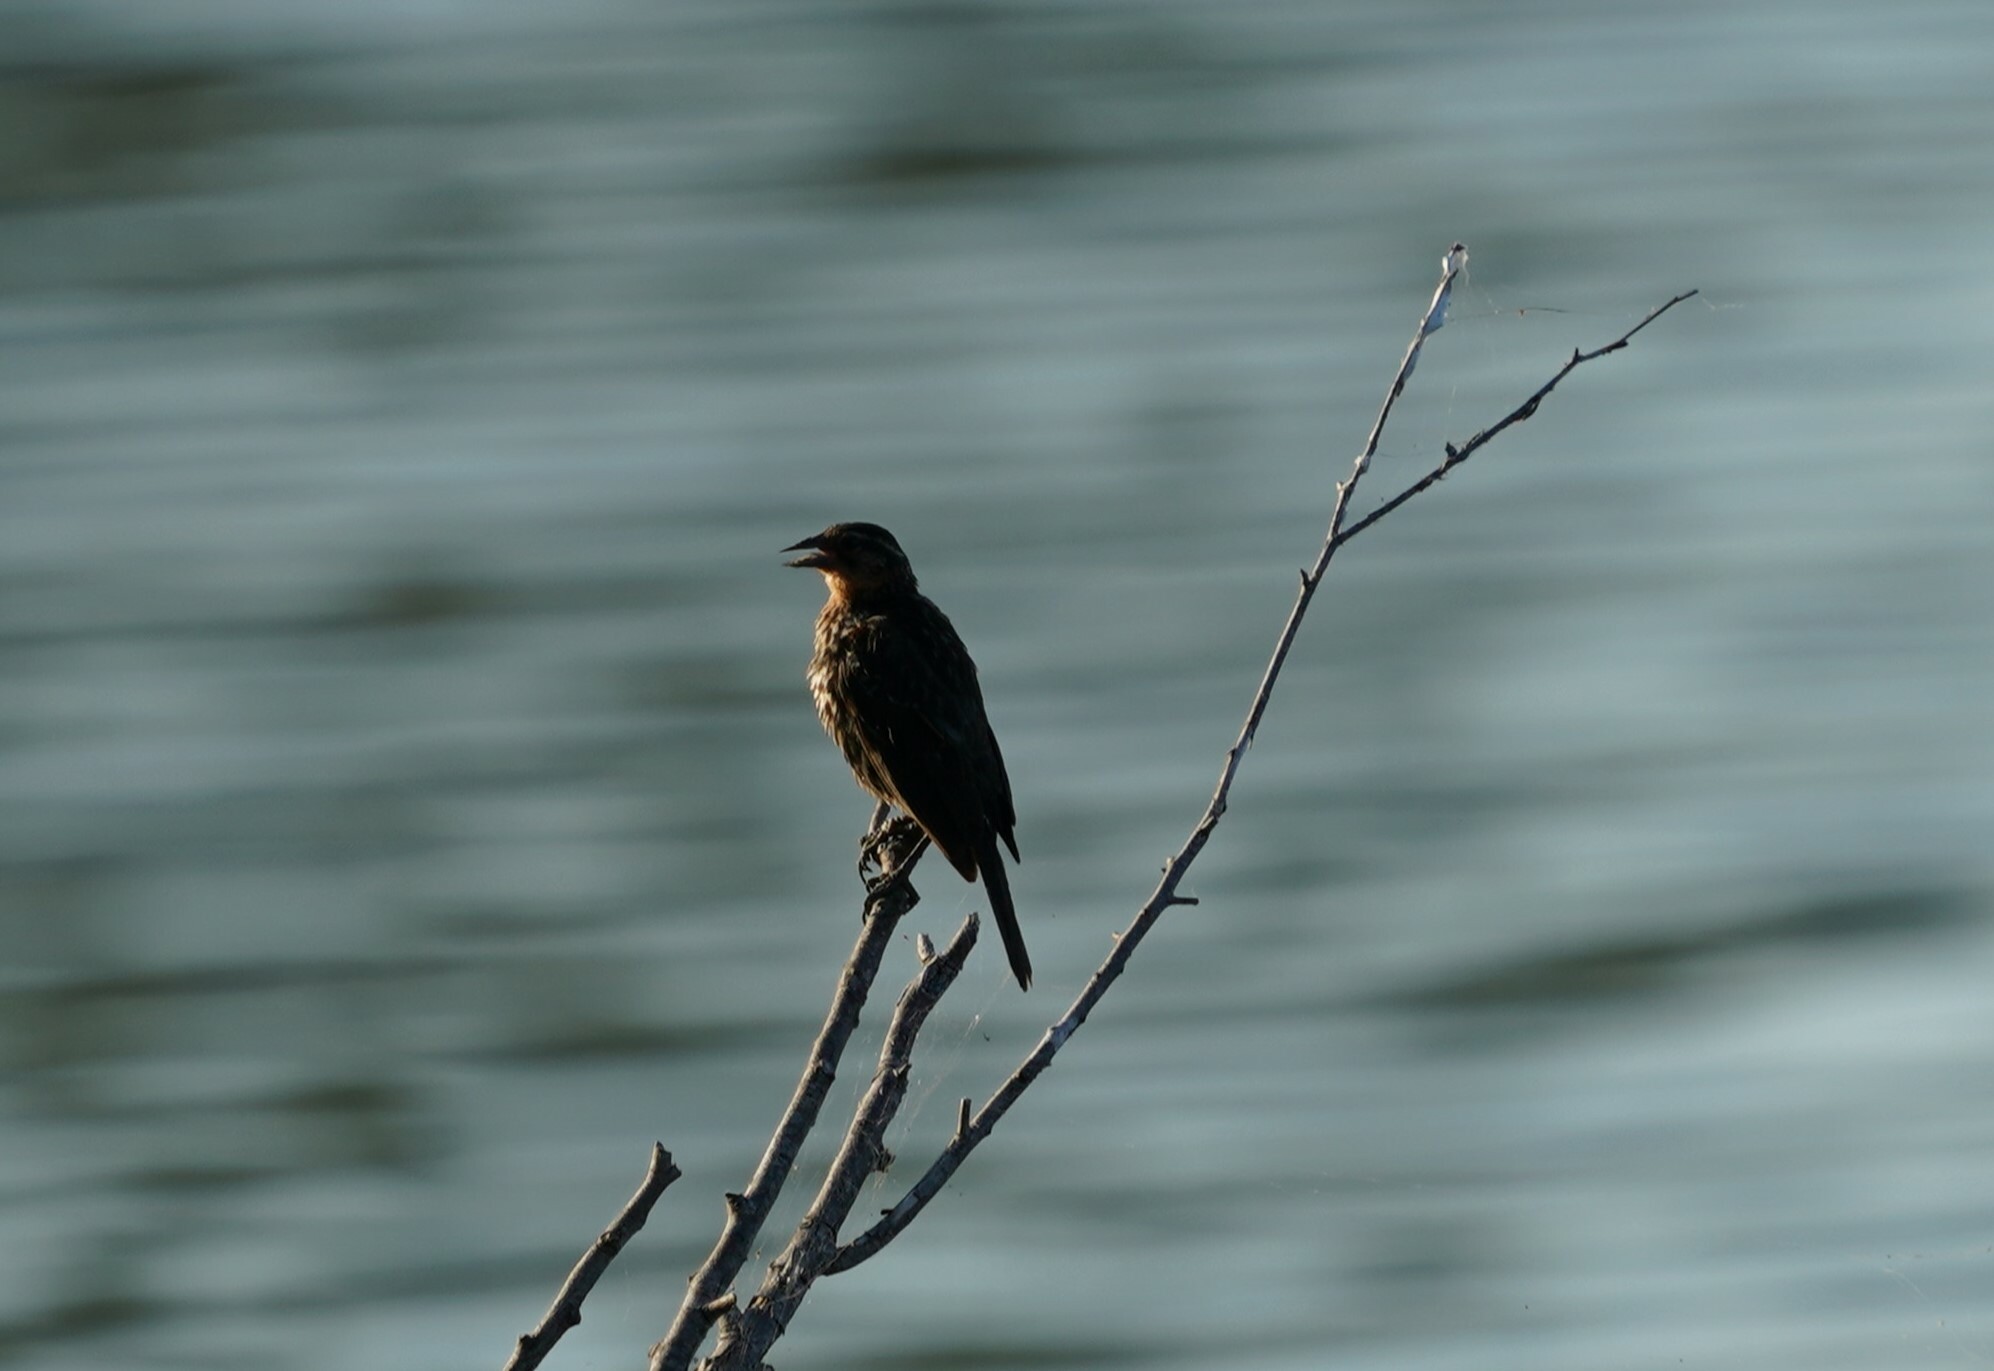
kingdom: Animalia
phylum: Chordata
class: Aves
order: Passeriformes
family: Icteridae
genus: Agelaius
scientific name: Agelaius phoeniceus
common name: Red-winged blackbird
